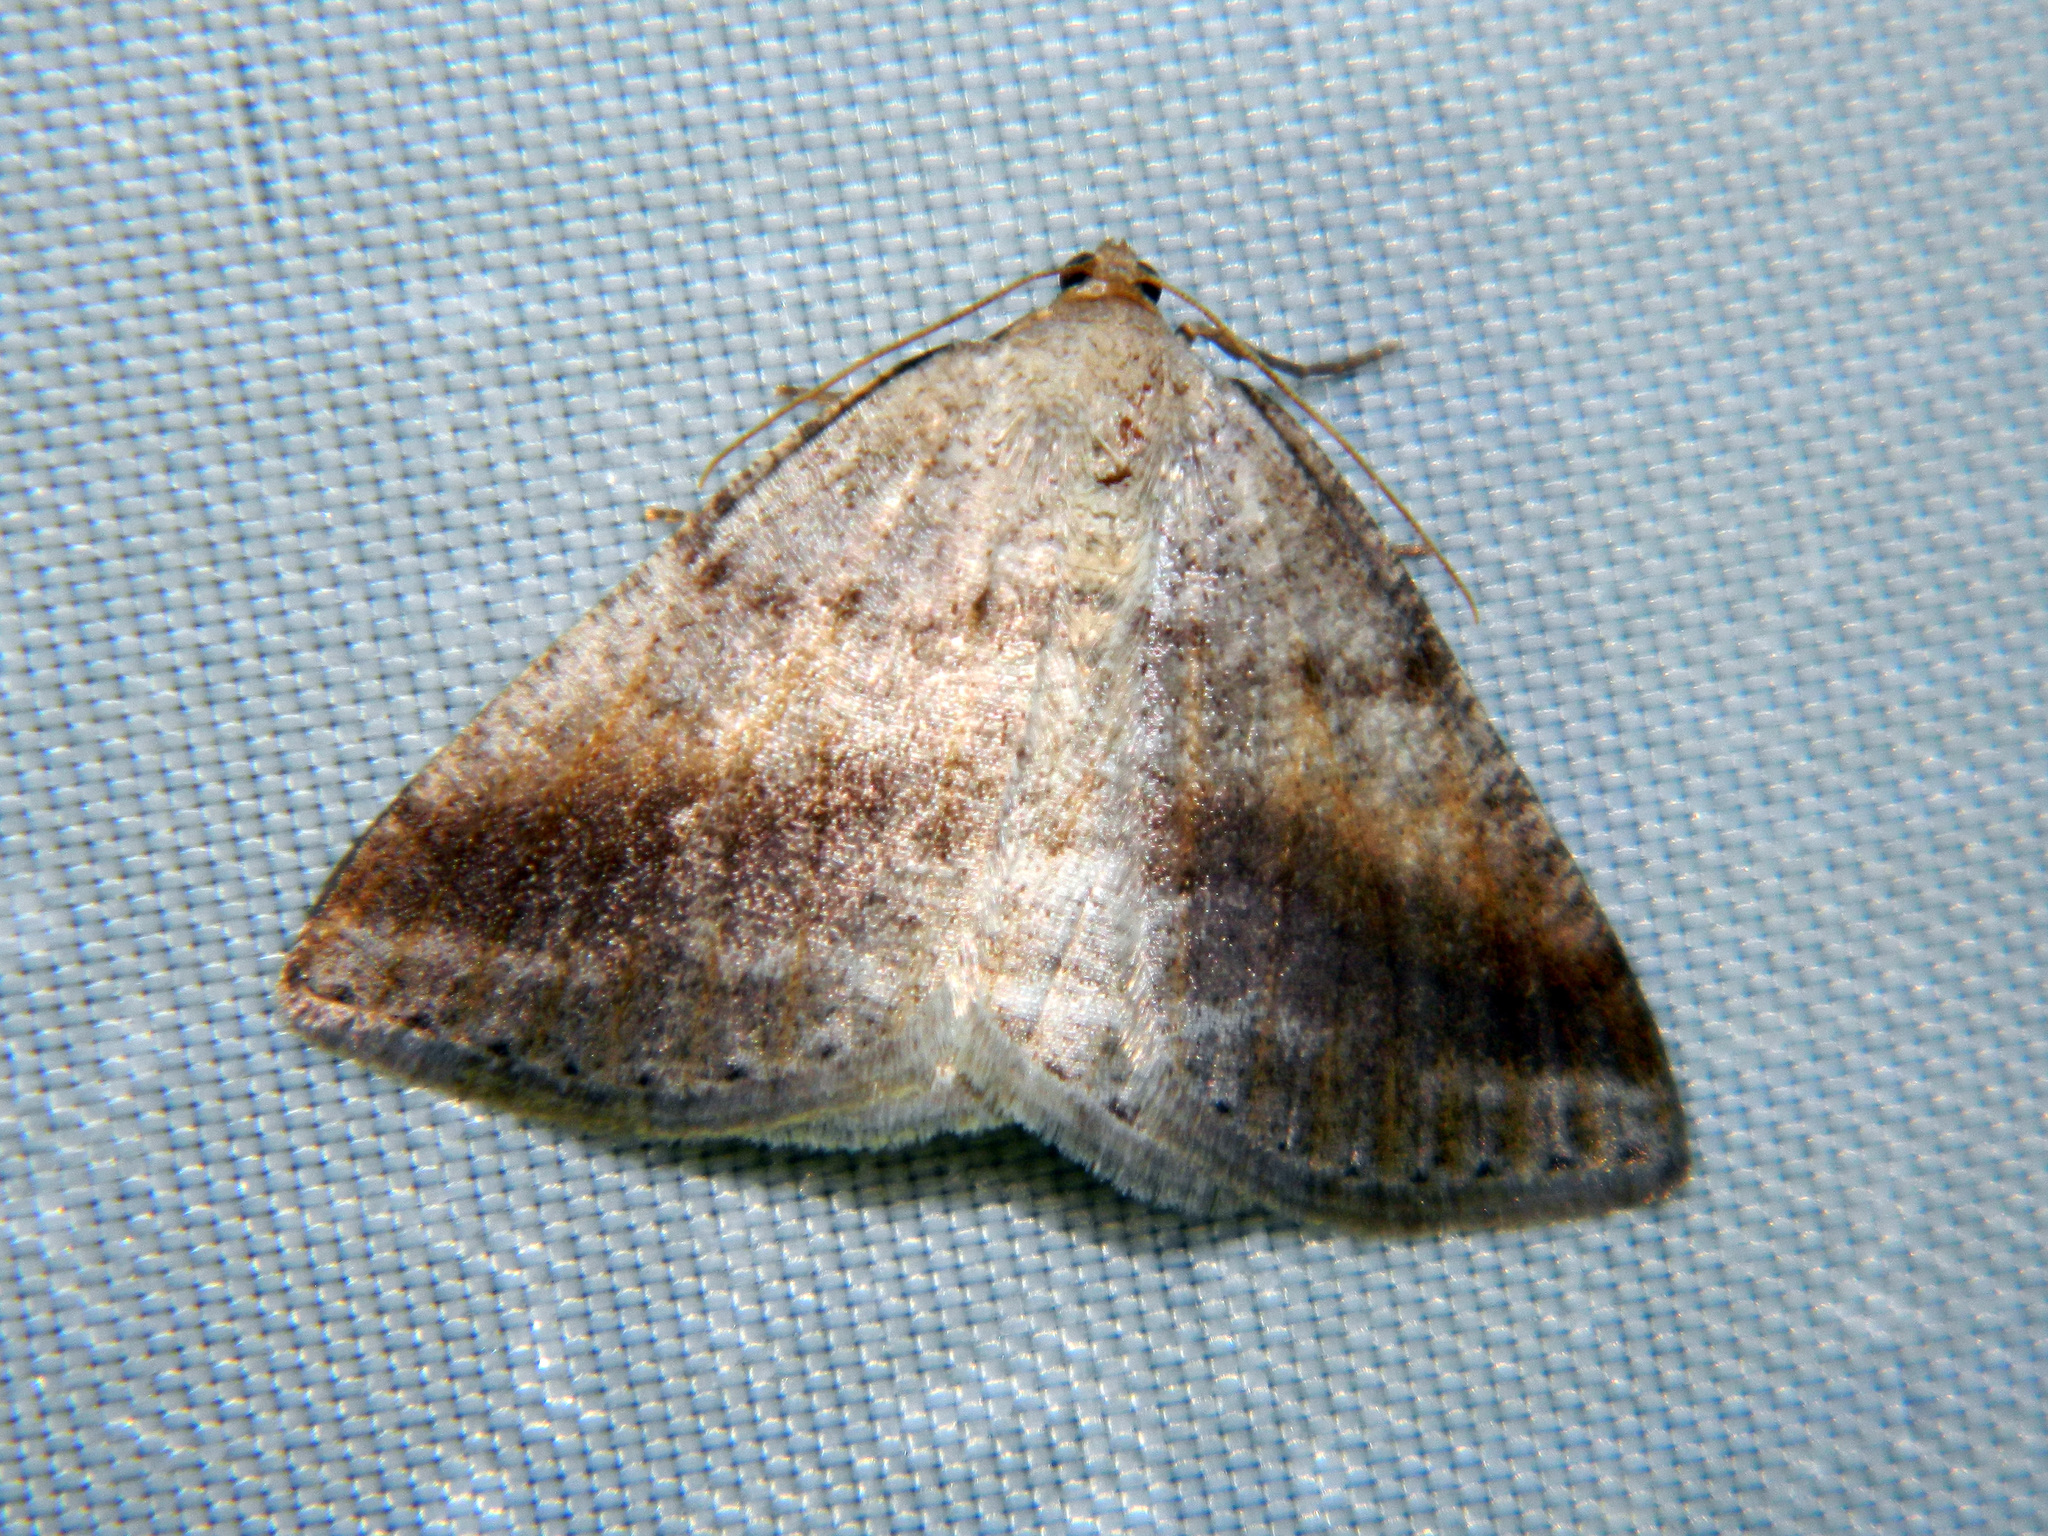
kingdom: Animalia
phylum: Arthropoda
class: Insecta
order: Lepidoptera
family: Geometridae
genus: Tacparia
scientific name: Tacparia detersata
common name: Pale alder moth
